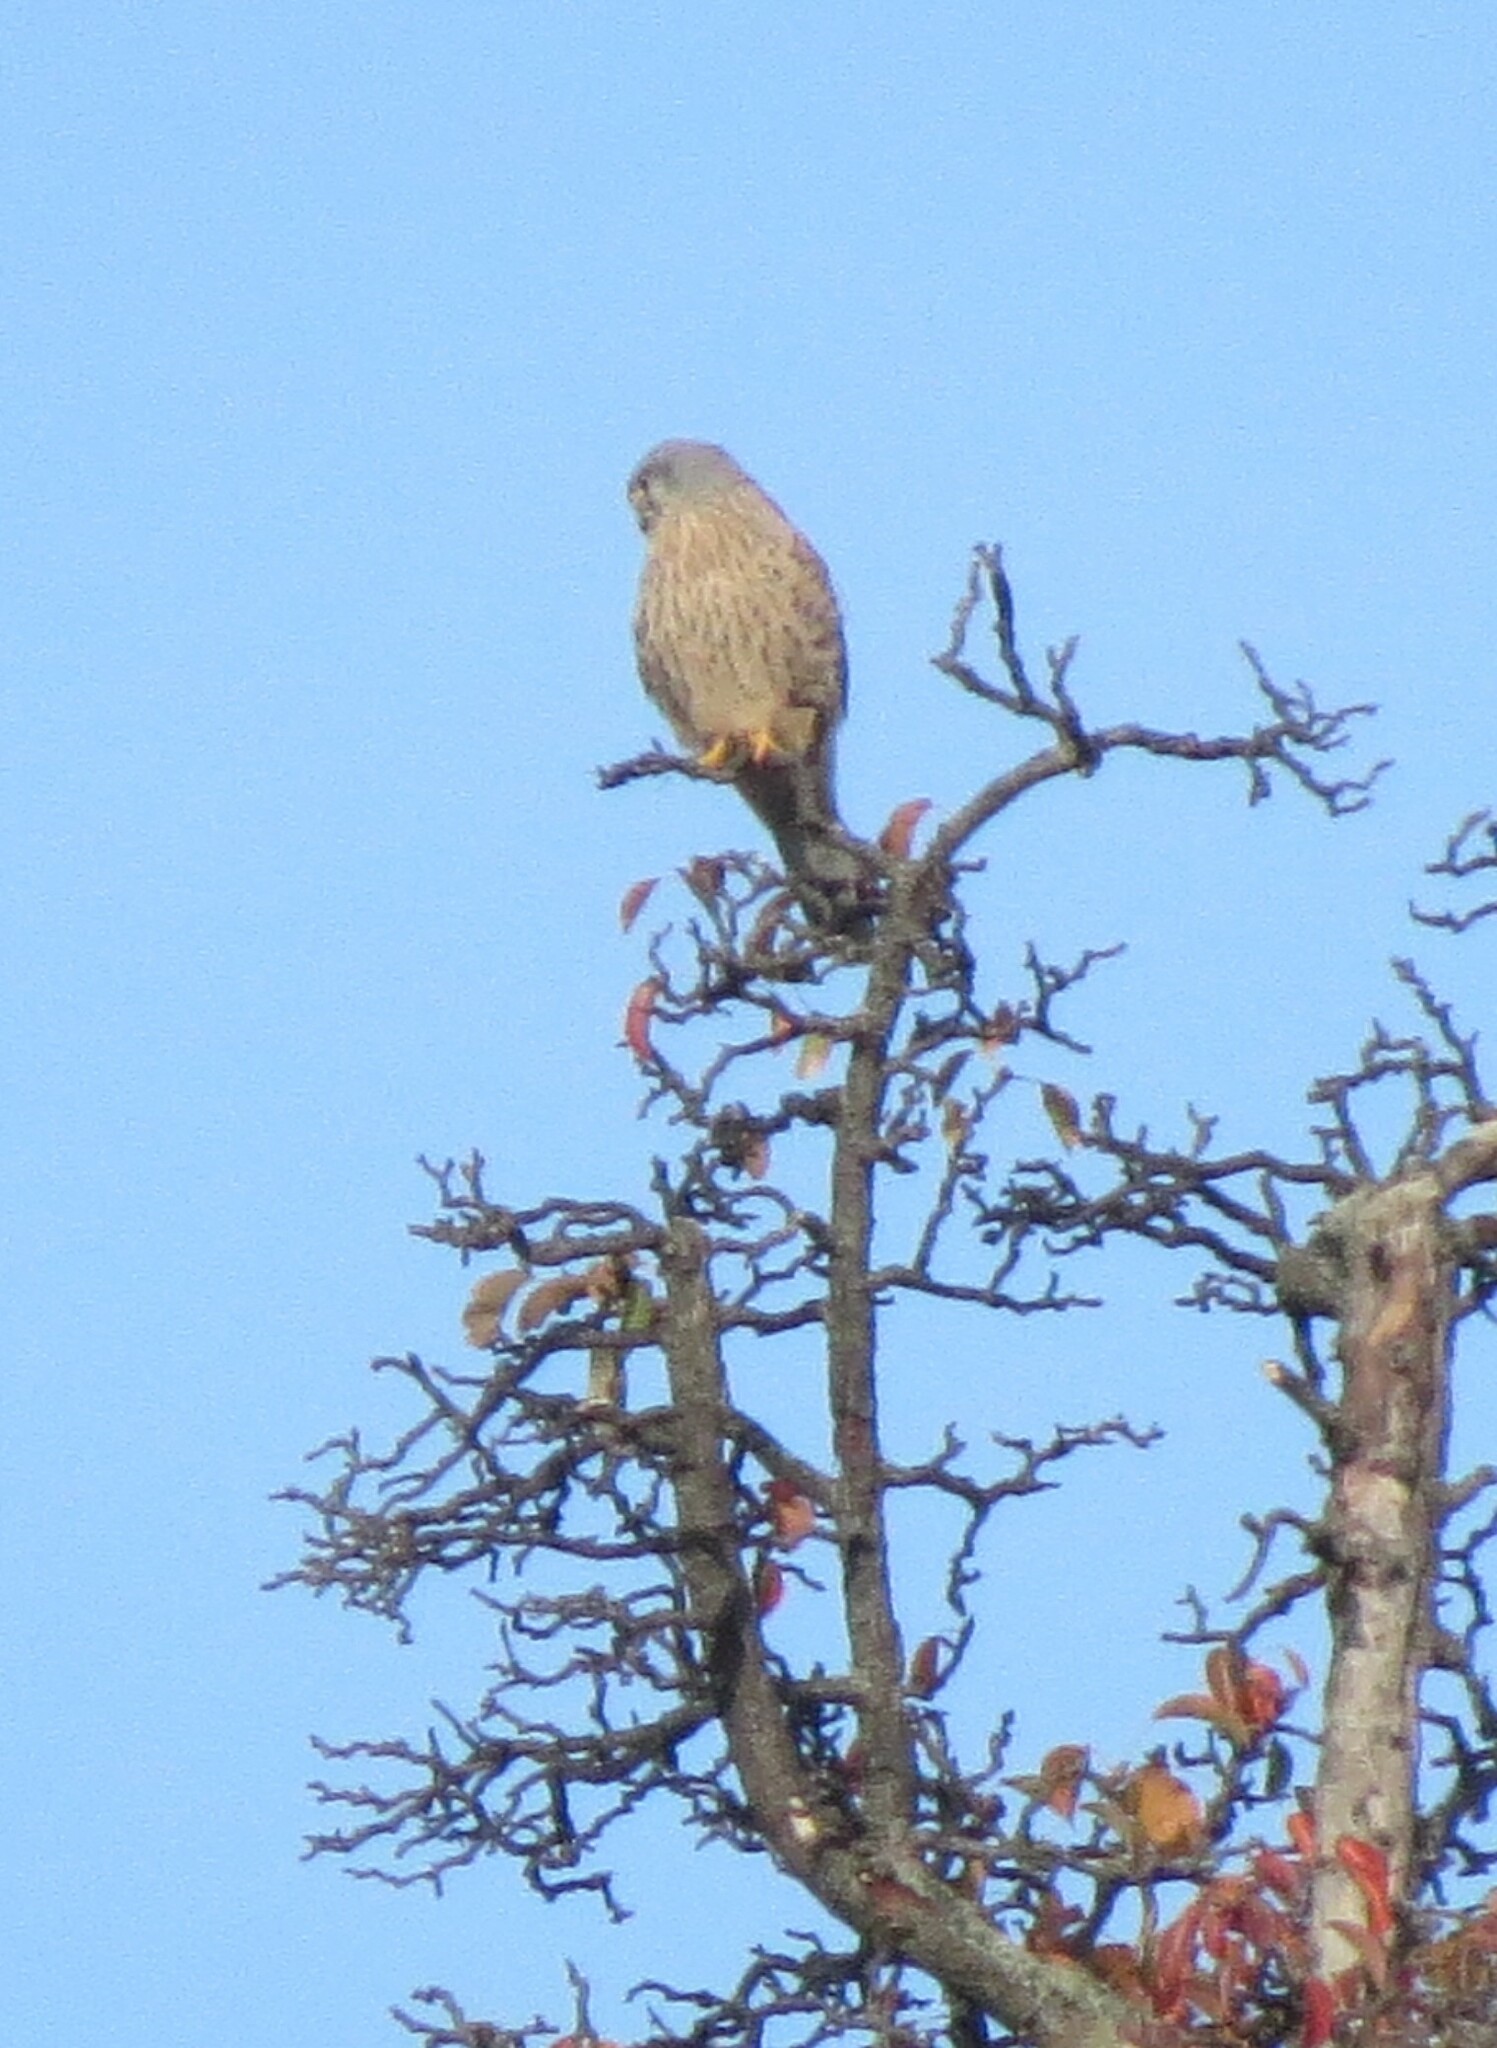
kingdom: Animalia
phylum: Chordata
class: Aves
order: Falconiformes
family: Falconidae
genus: Falco
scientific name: Falco tinnunculus
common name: Common kestrel
